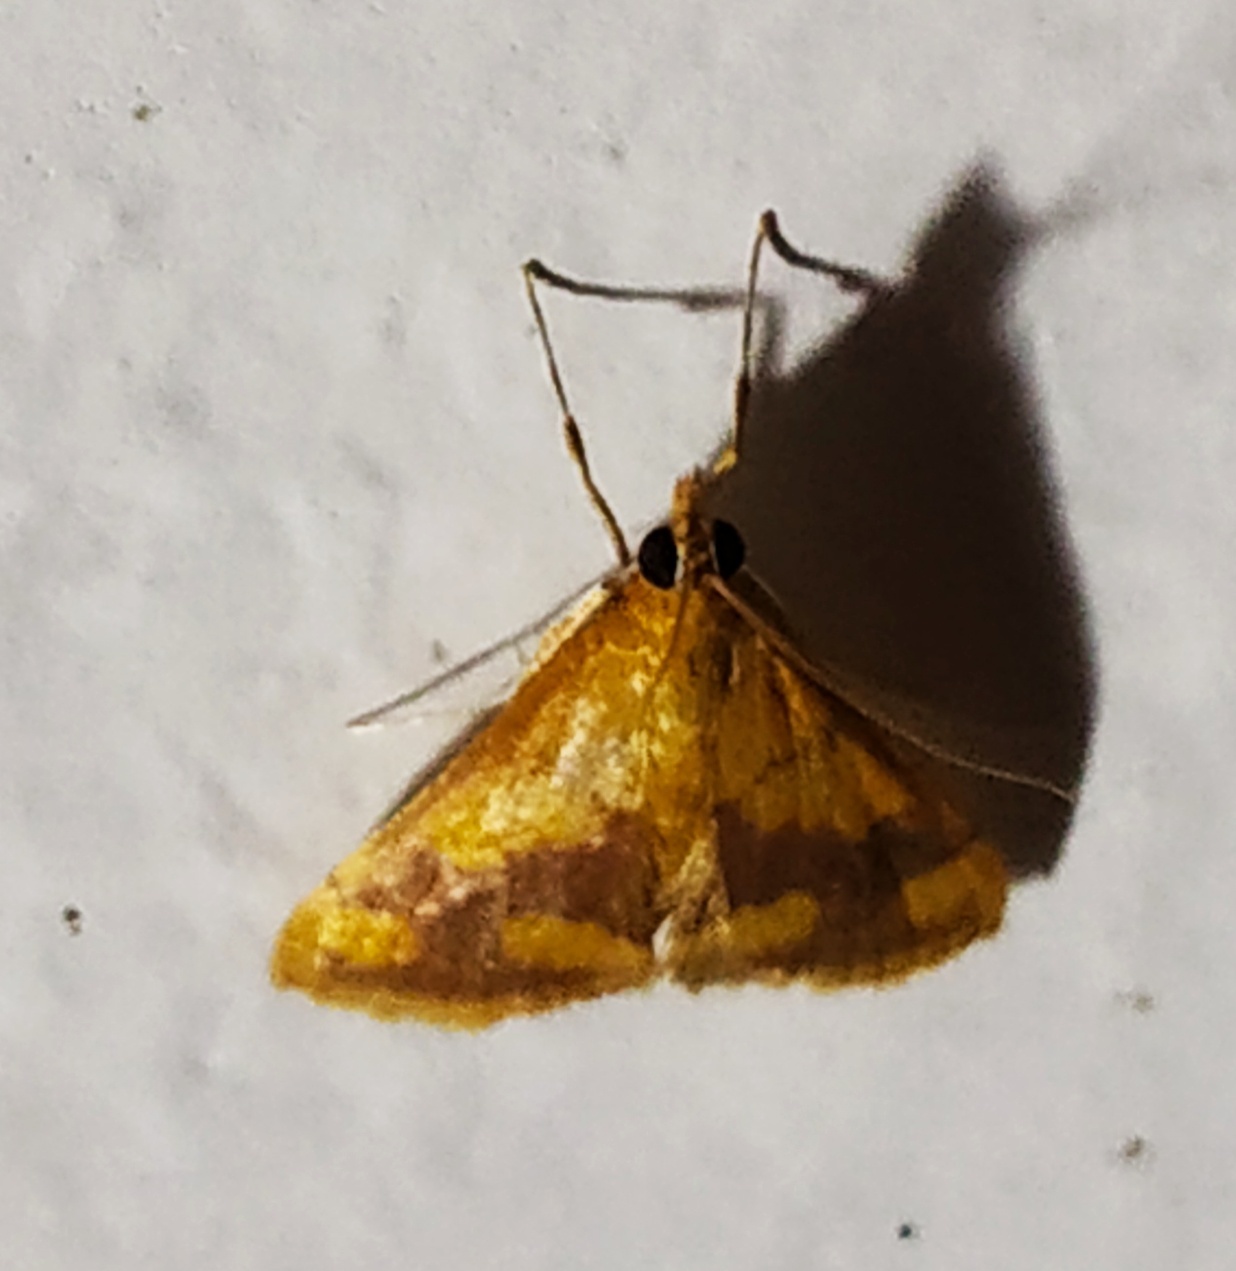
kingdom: Animalia
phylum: Arthropoda
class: Insecta
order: Lepidoptera
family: Crambidae
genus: Pyrausta
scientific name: Pyrausta phoenicealis
